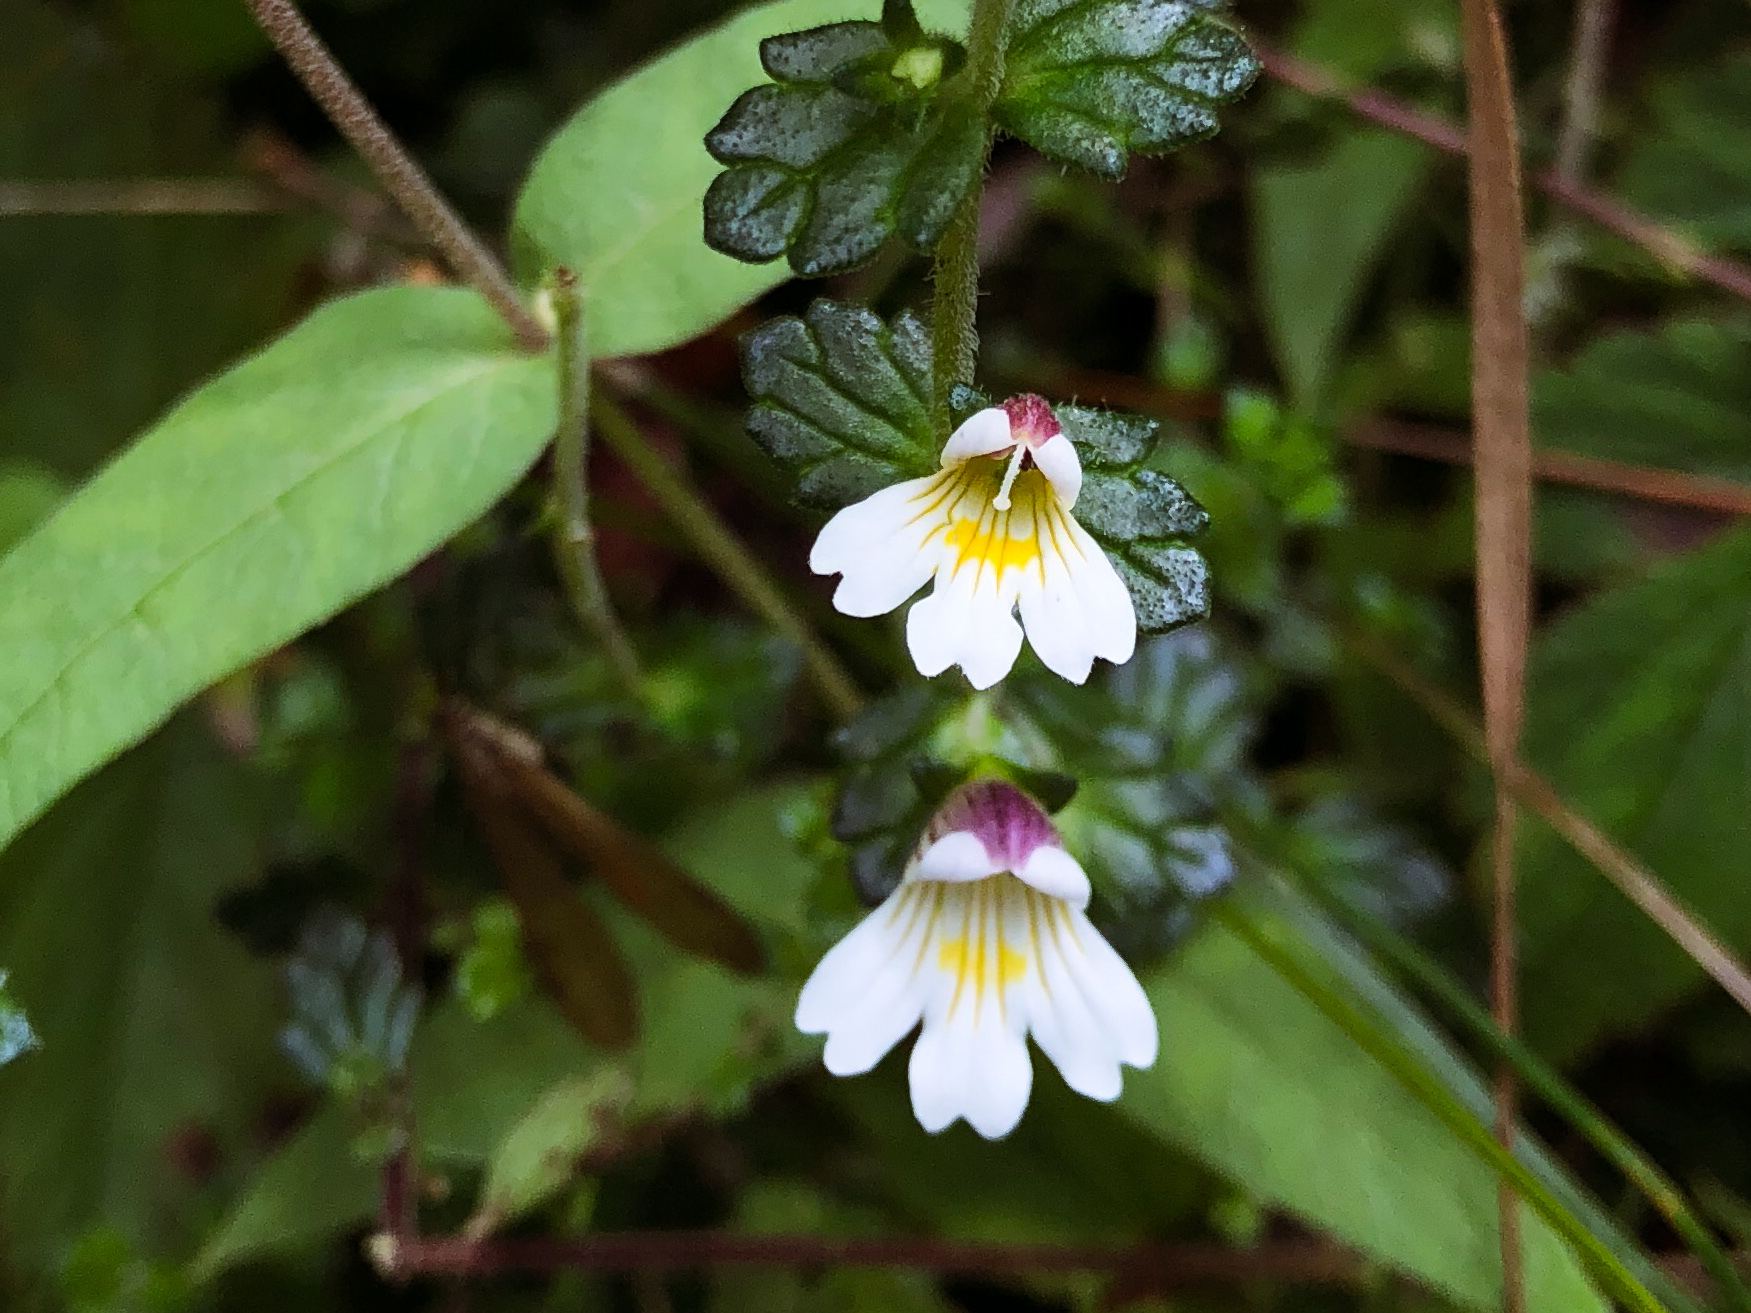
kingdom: Plantae
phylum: Tracheophyta
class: Magnoliopsida
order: Lamiales
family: Orobanchaceae
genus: Euphrasia
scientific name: Euphrasia transmorrisonensis
